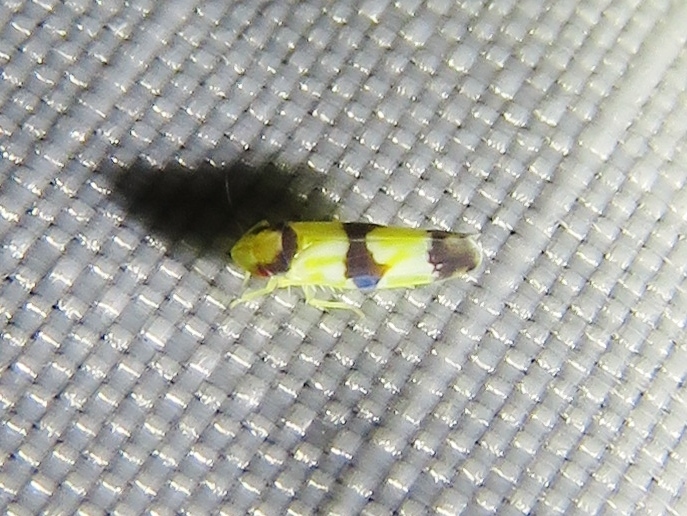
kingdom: Animalia
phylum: Arthropoda
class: Insecta
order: Hemiptera
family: Cicadellidae
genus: Erythroneura
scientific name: Erythroneura calycula
